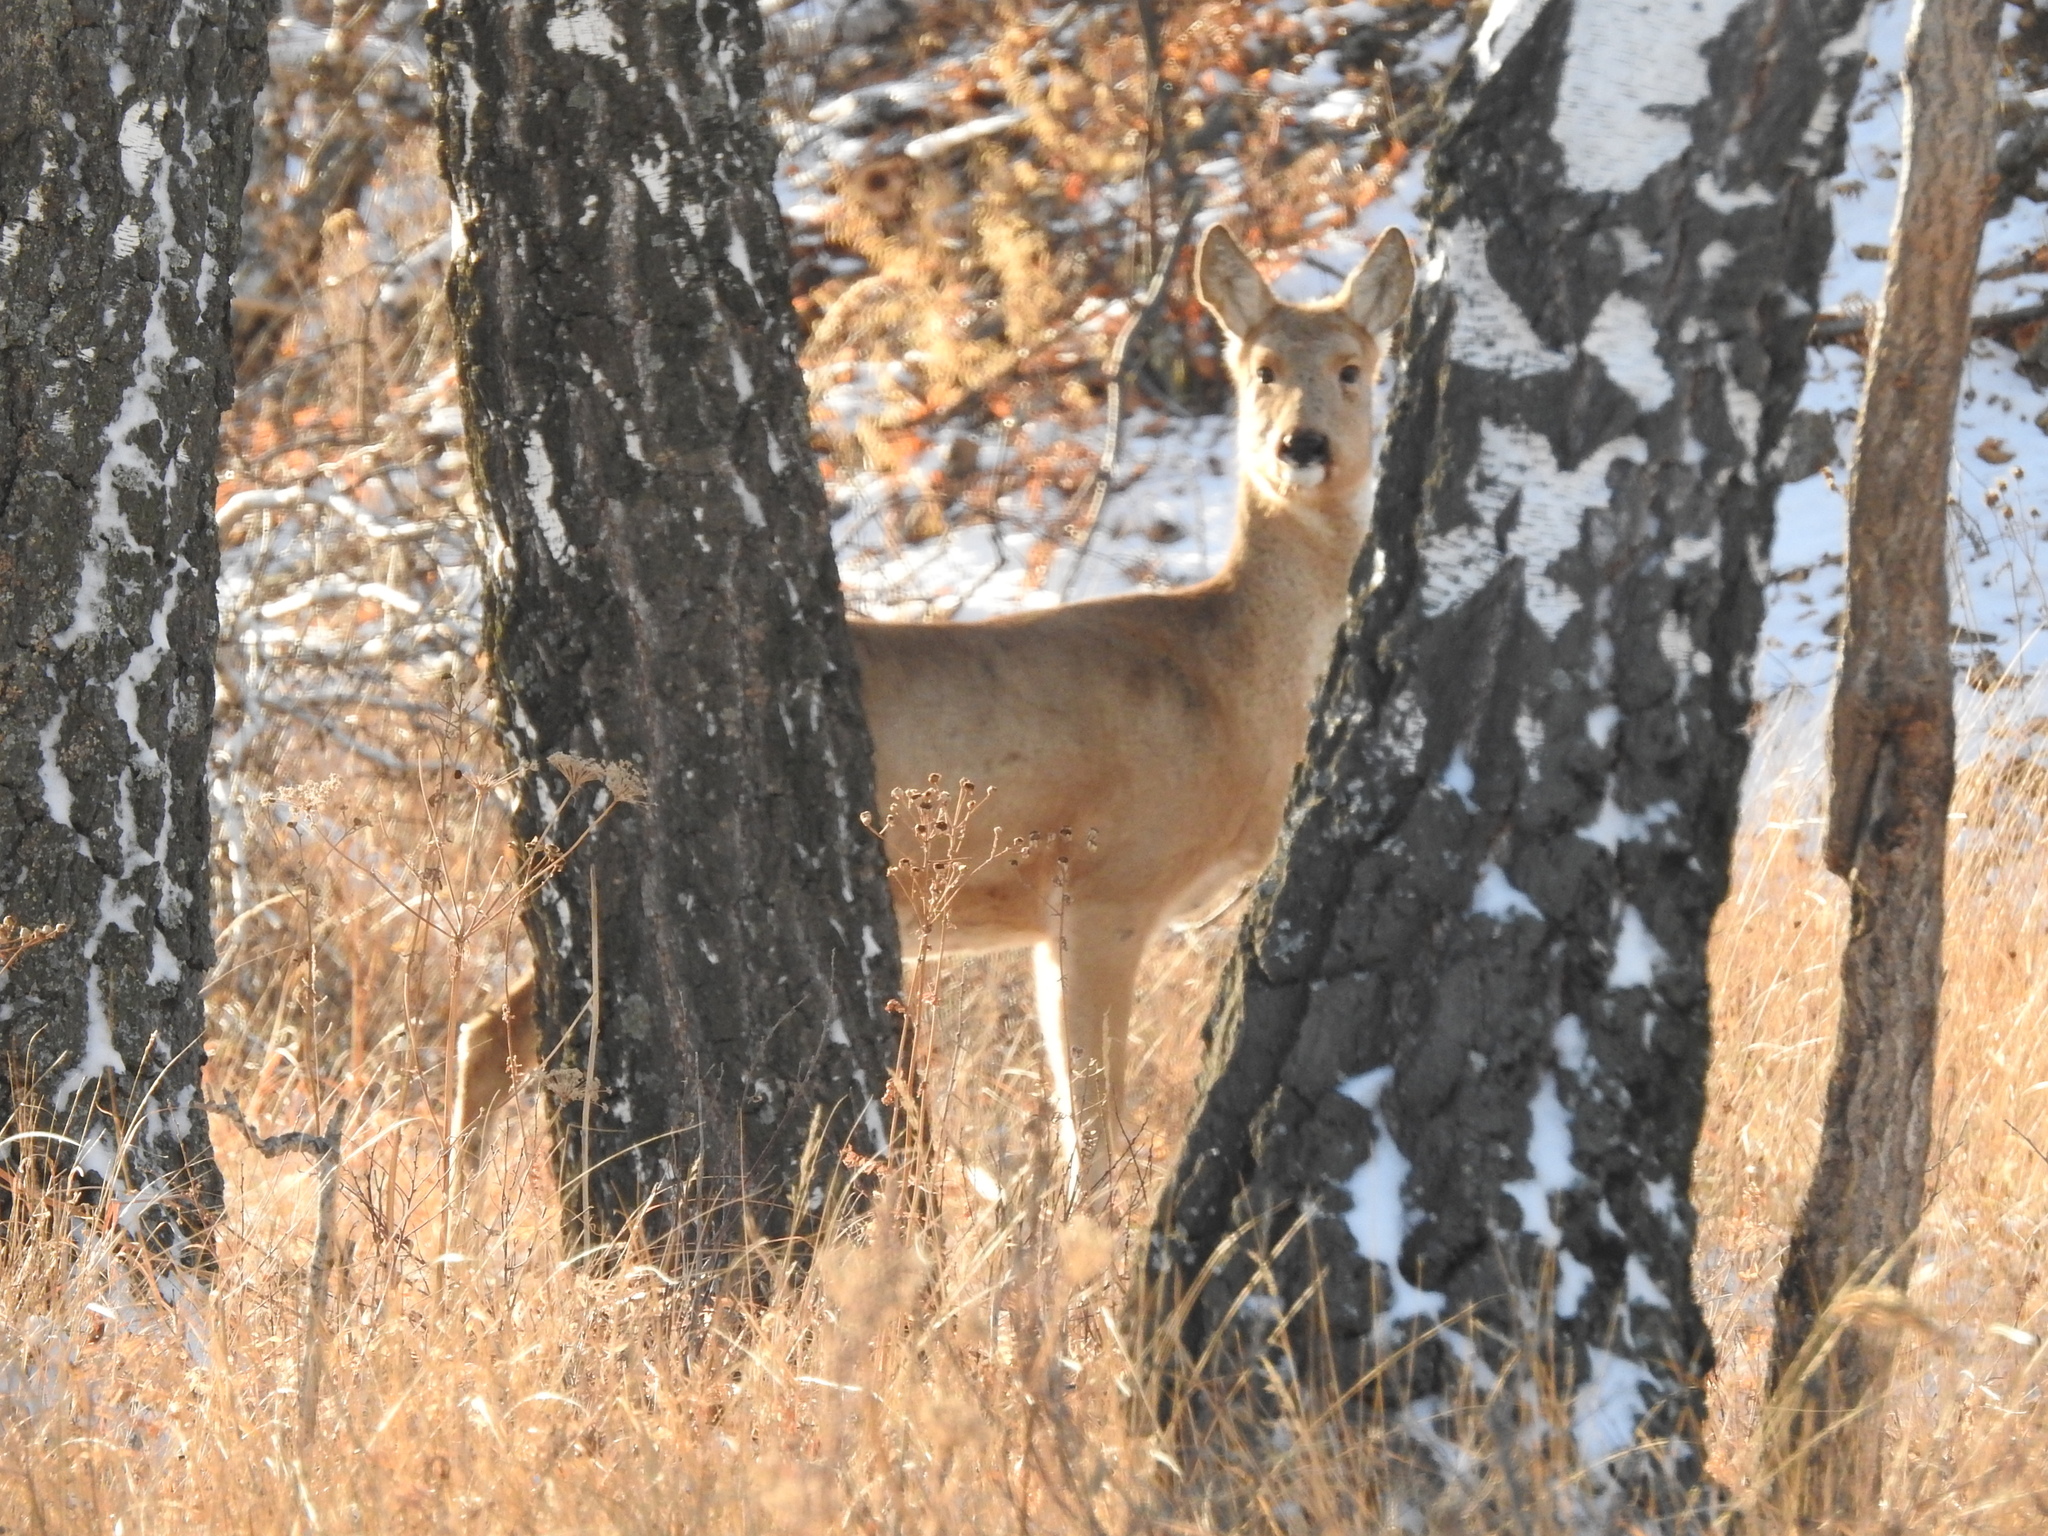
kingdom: Animalia
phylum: Chordata
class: Mammalia
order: Artiodactyla
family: Cervidae
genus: Capreolus
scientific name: Capreolus pygargus
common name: Siberian roe
